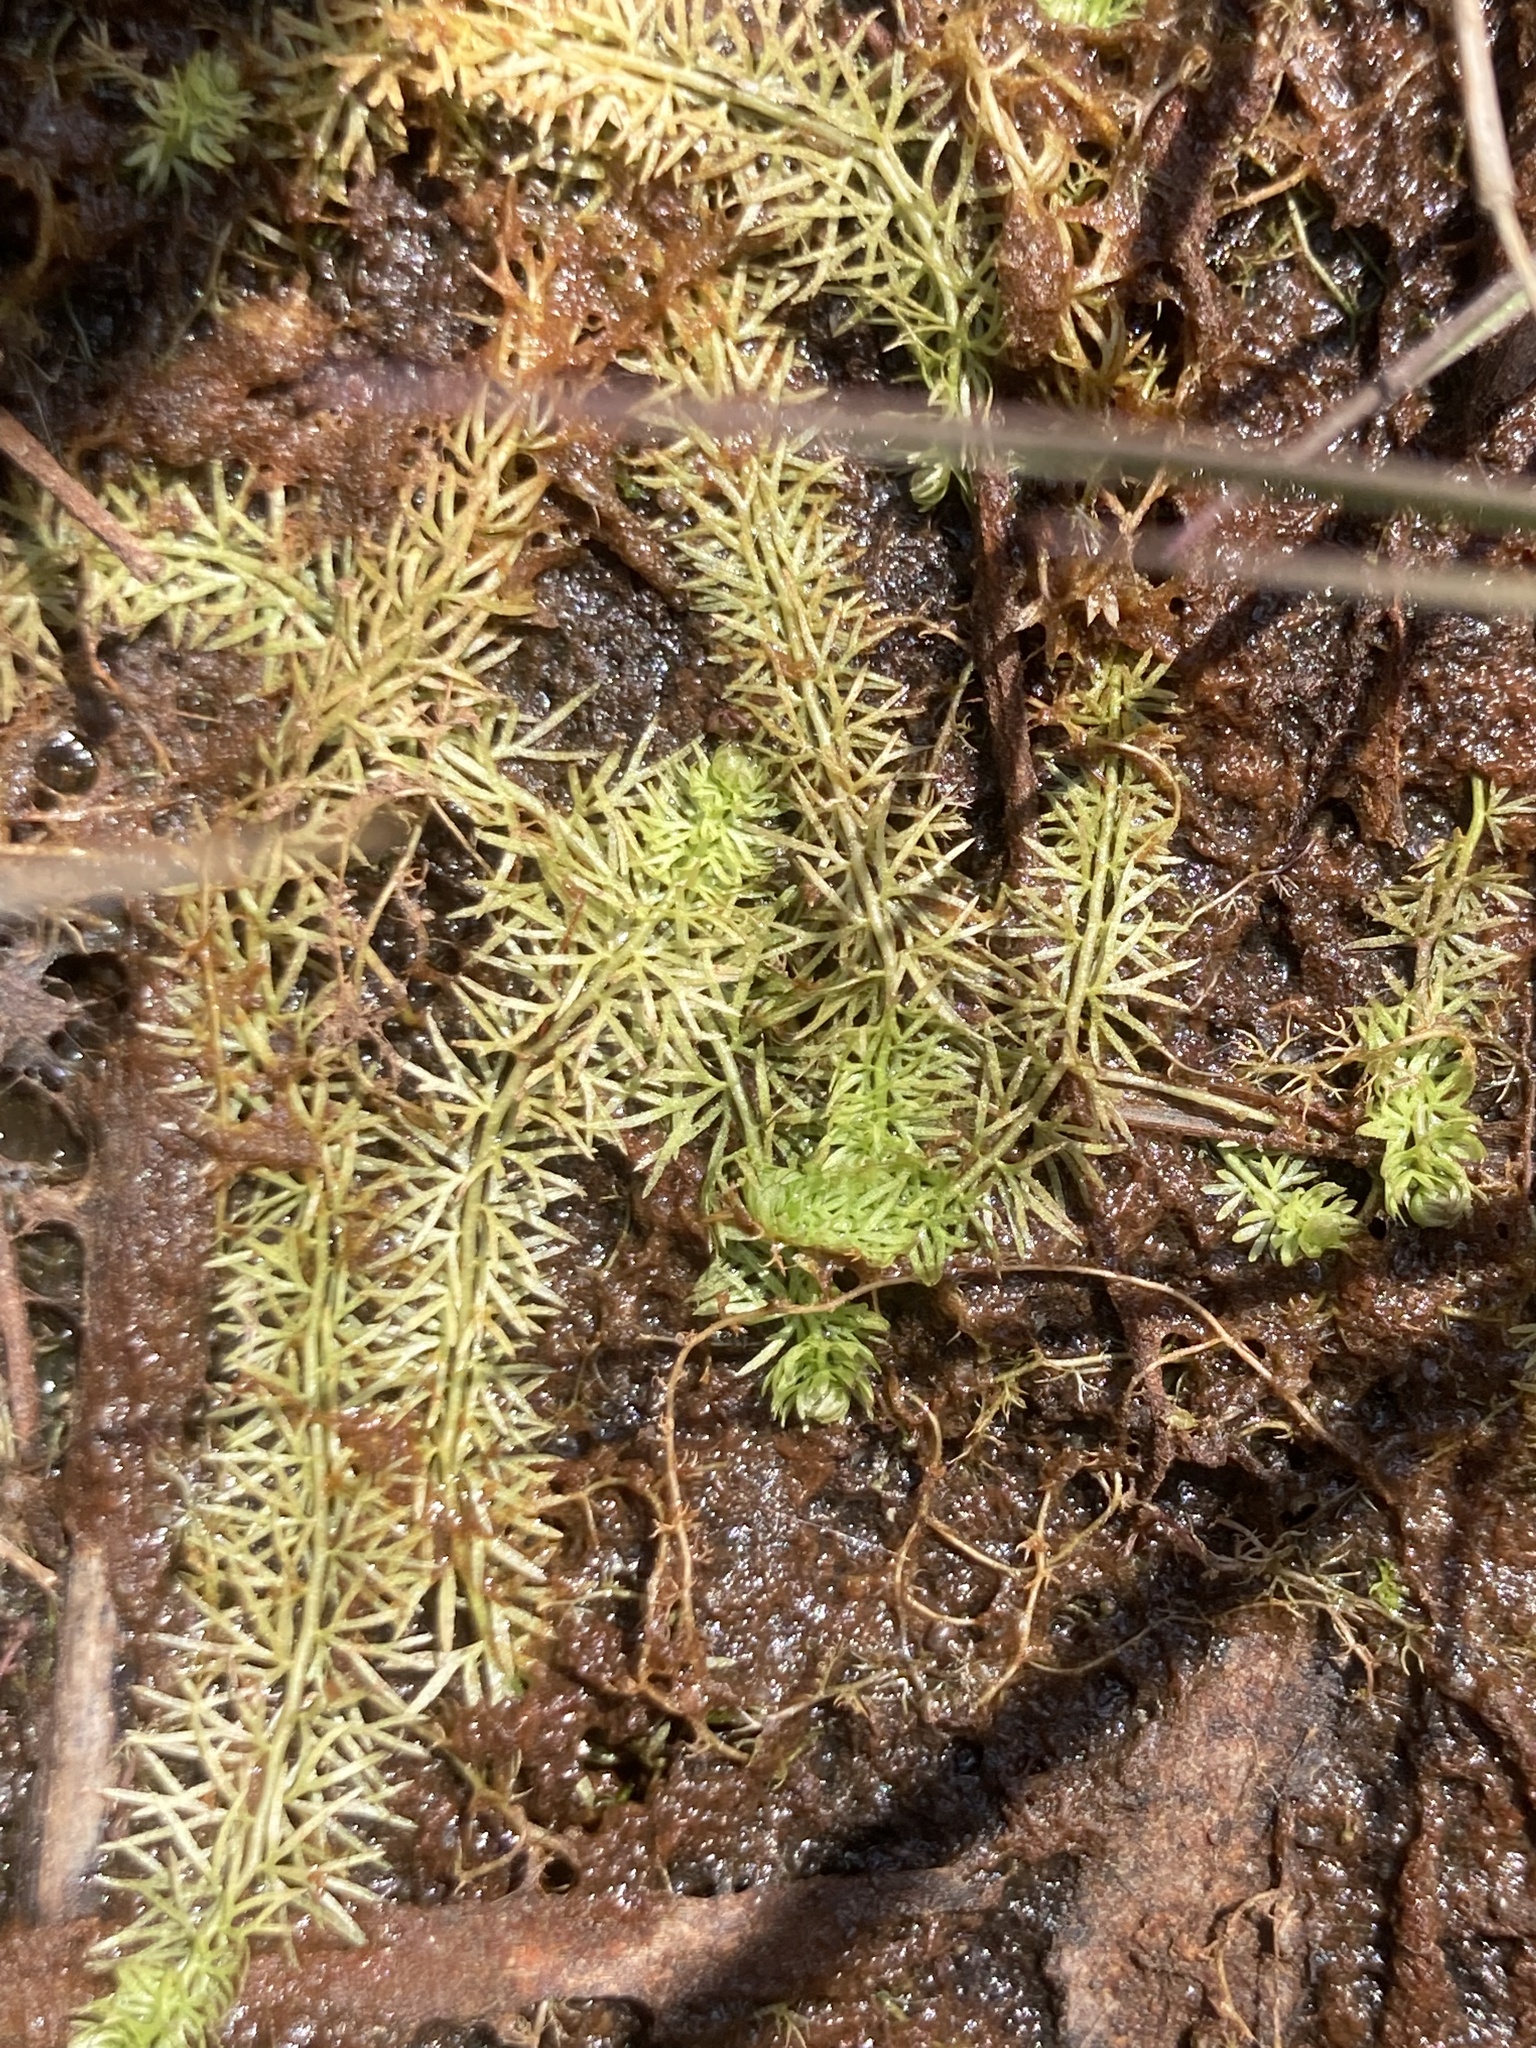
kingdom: Plantae
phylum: Tracheophyta
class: Magnoliopsida
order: Lamiales
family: Lentibulariaceae
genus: Utricularia
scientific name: Utricularia intermedia
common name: Intermediate bladderwort
